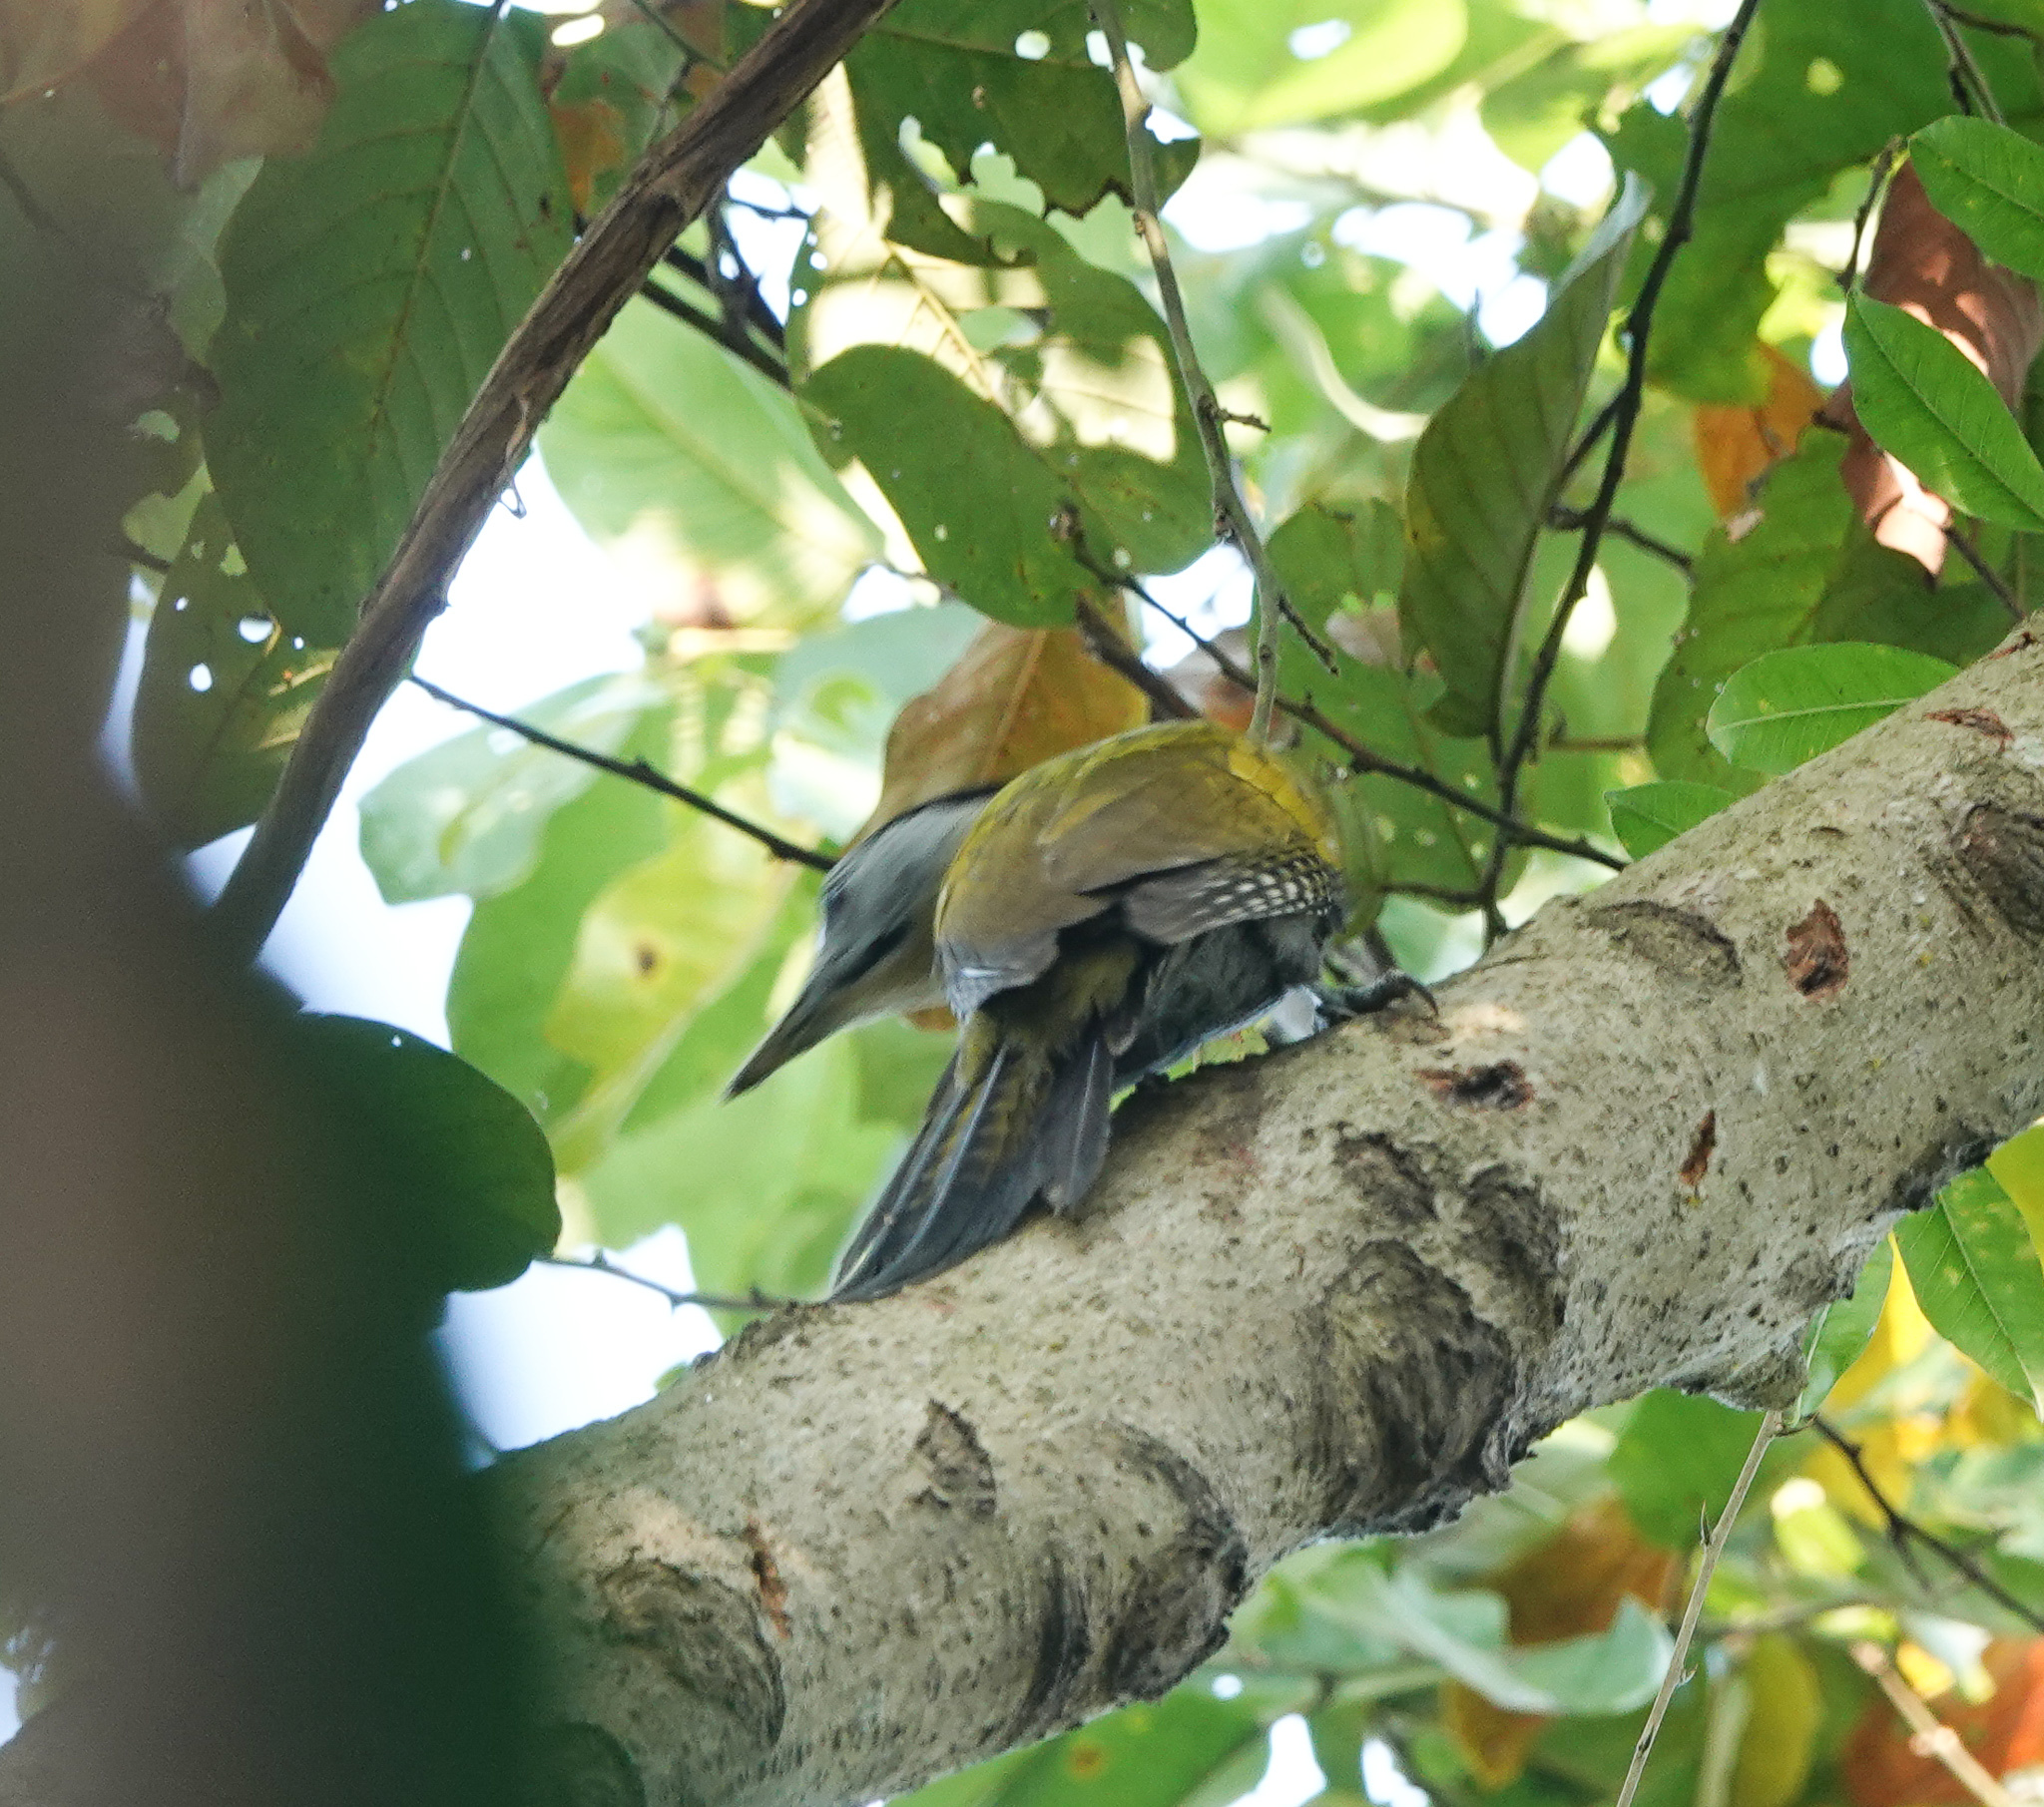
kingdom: Animalia
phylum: Chordata
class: Aves
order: Piciformes
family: Picidae
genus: Picus
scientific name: Picus canus
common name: Grey-headed woodpecker
